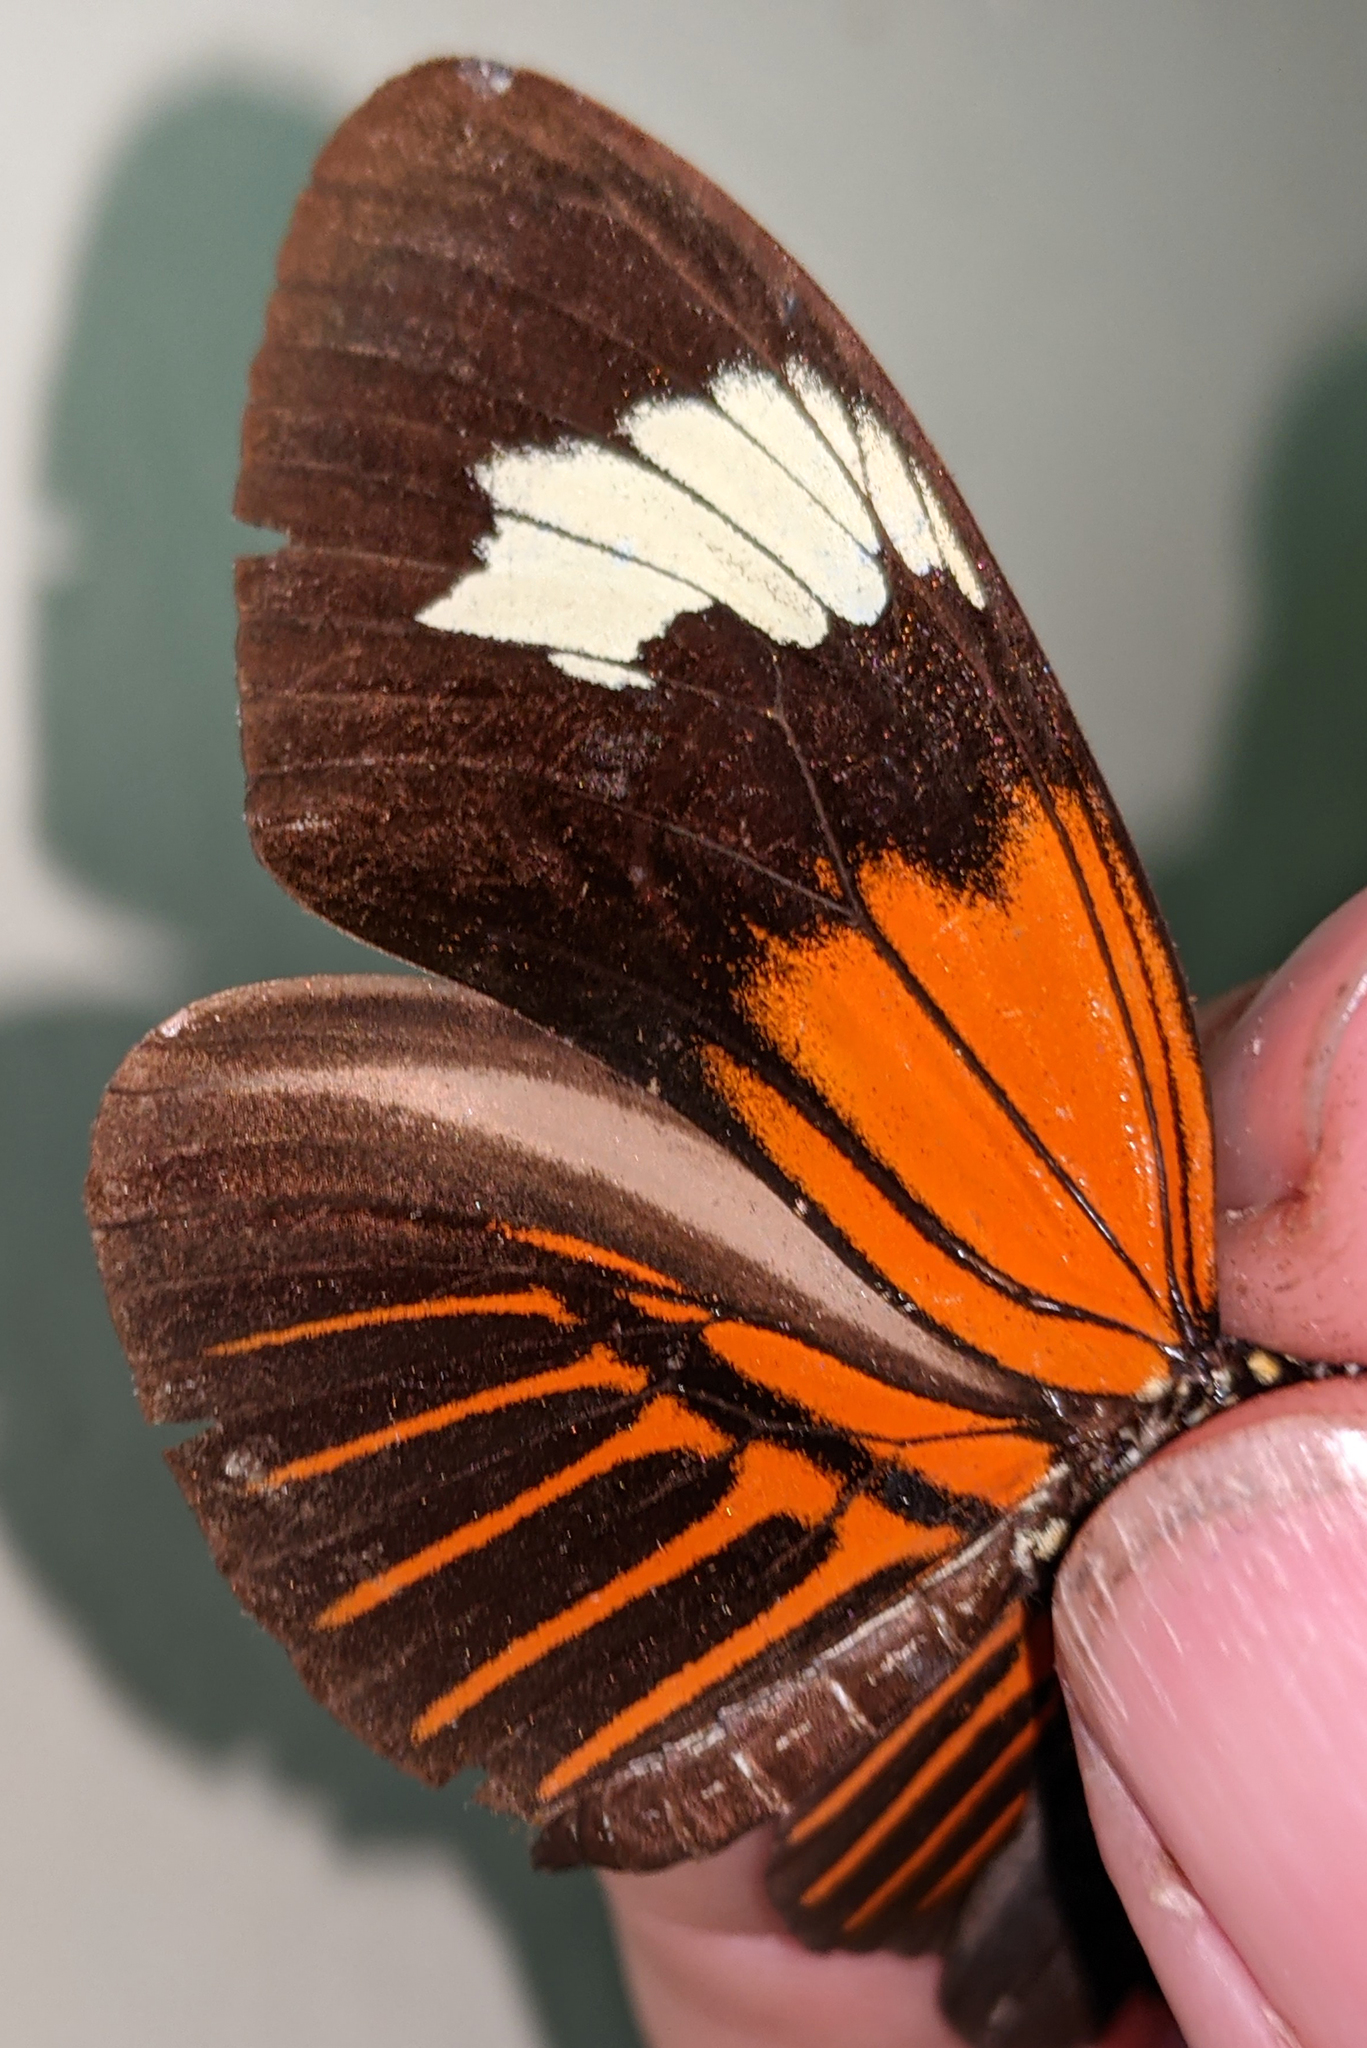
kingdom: Animalia
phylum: Arthropoda
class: Insecta
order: Lepidoptera
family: Nymphalidae
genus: Heliconius
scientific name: Heliconius elevatus
